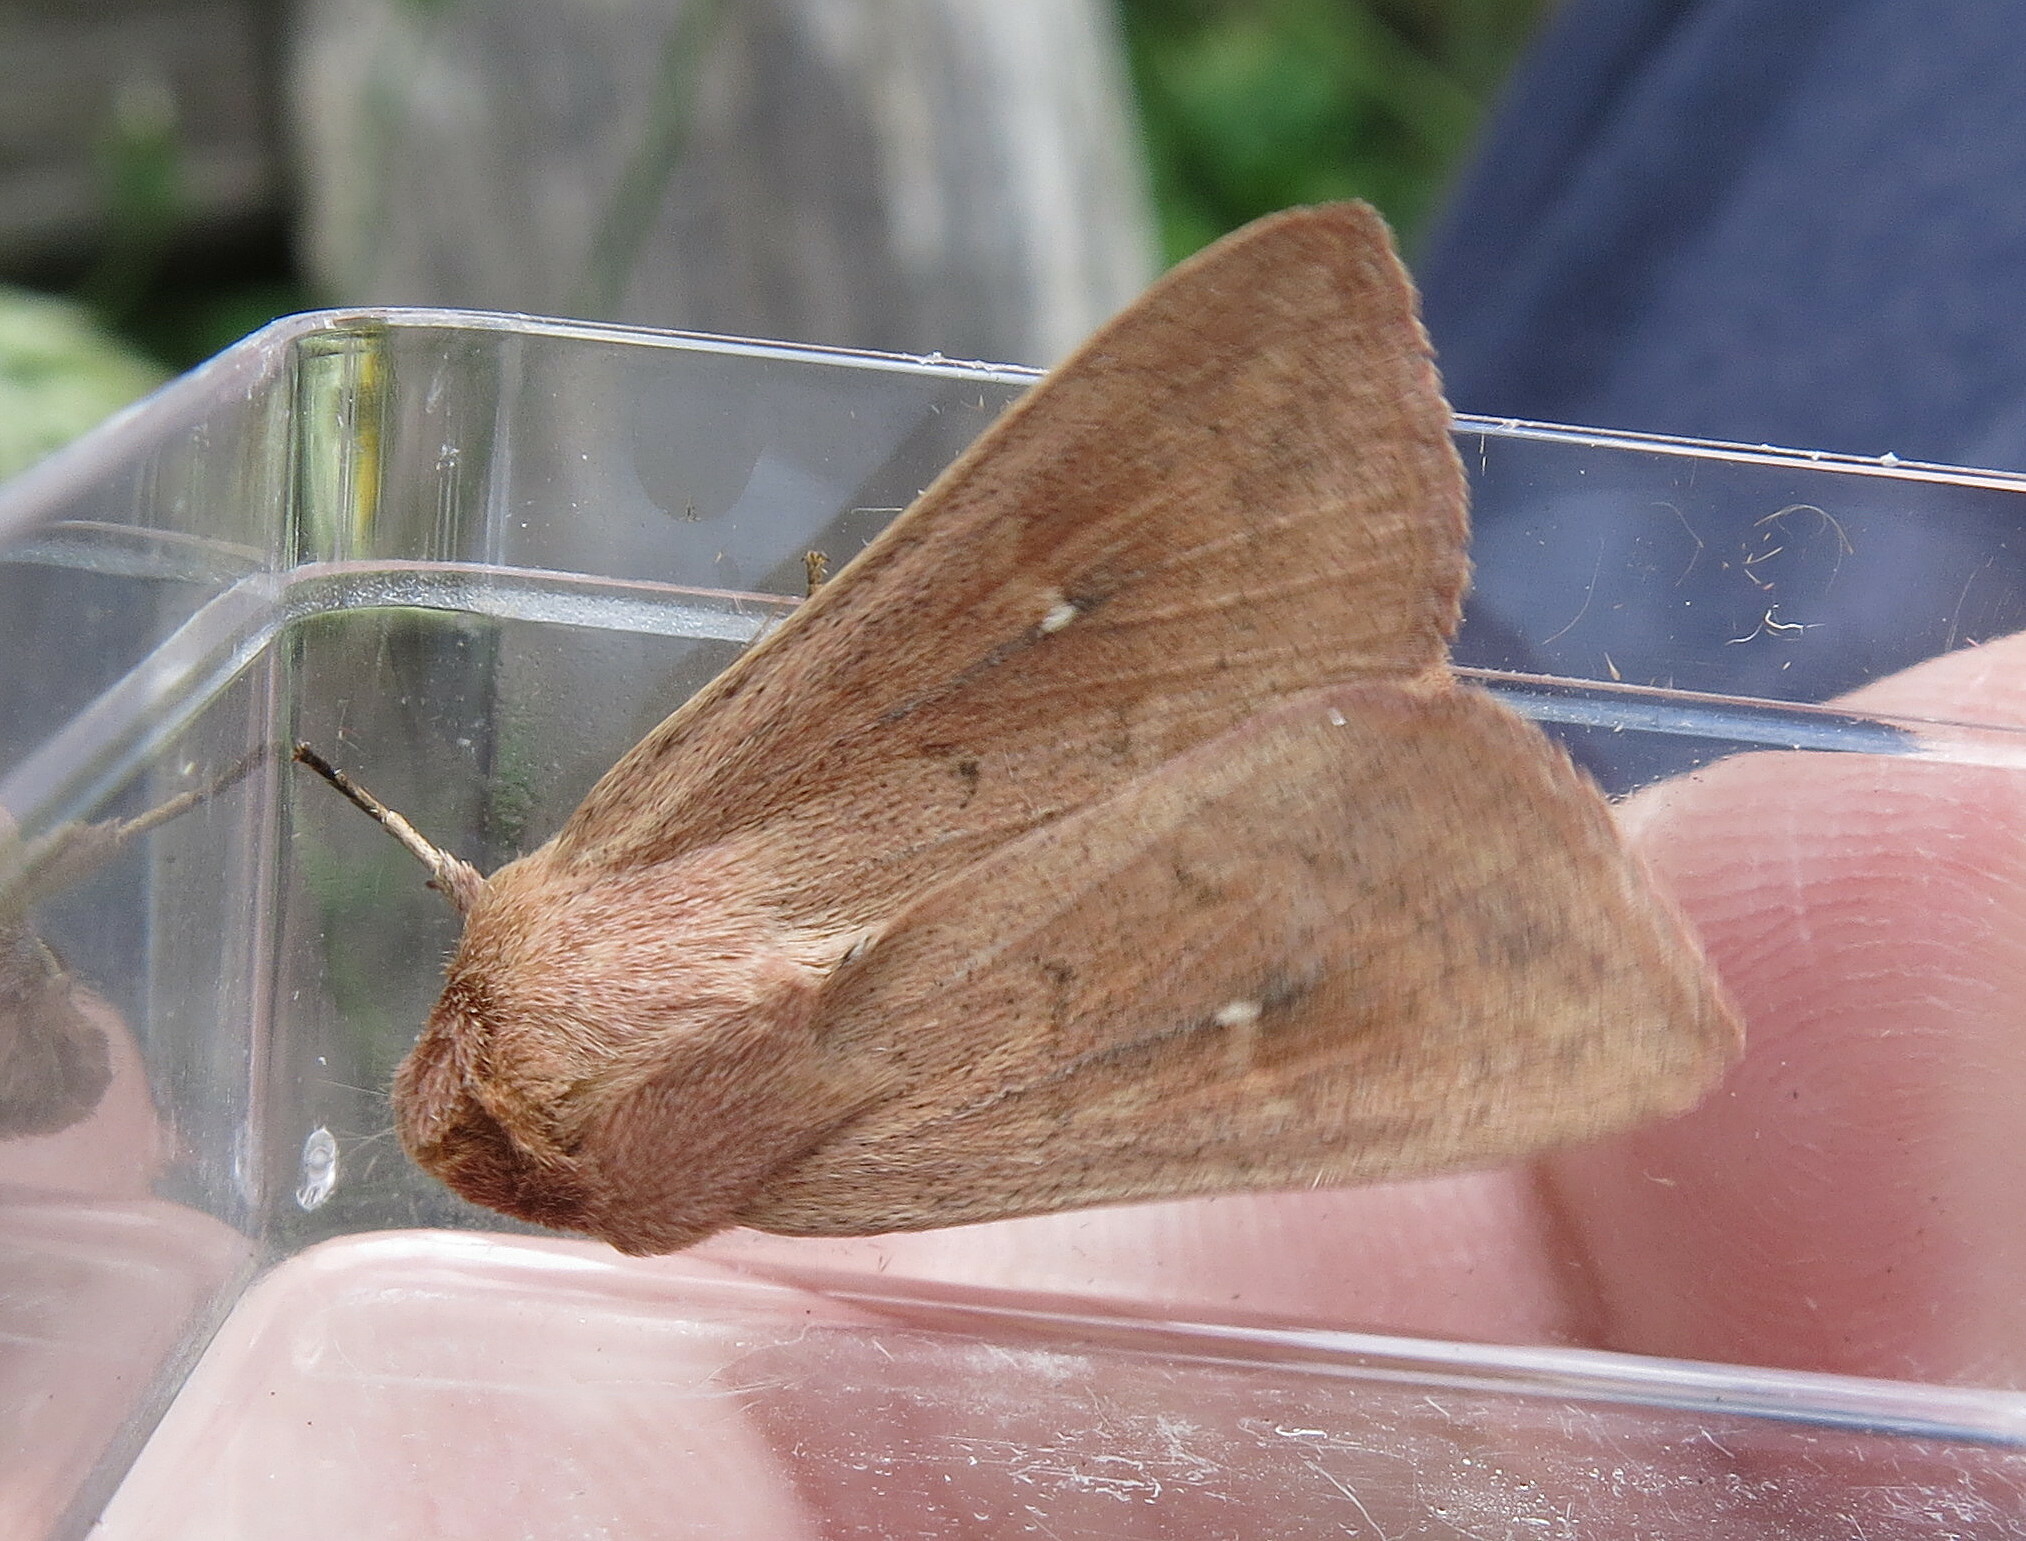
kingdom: Animalia
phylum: Arthropoda
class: Insecta
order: Lepidoptera
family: Noctuidae
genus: Mythimna
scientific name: Mythimna ferrago
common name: Clay
